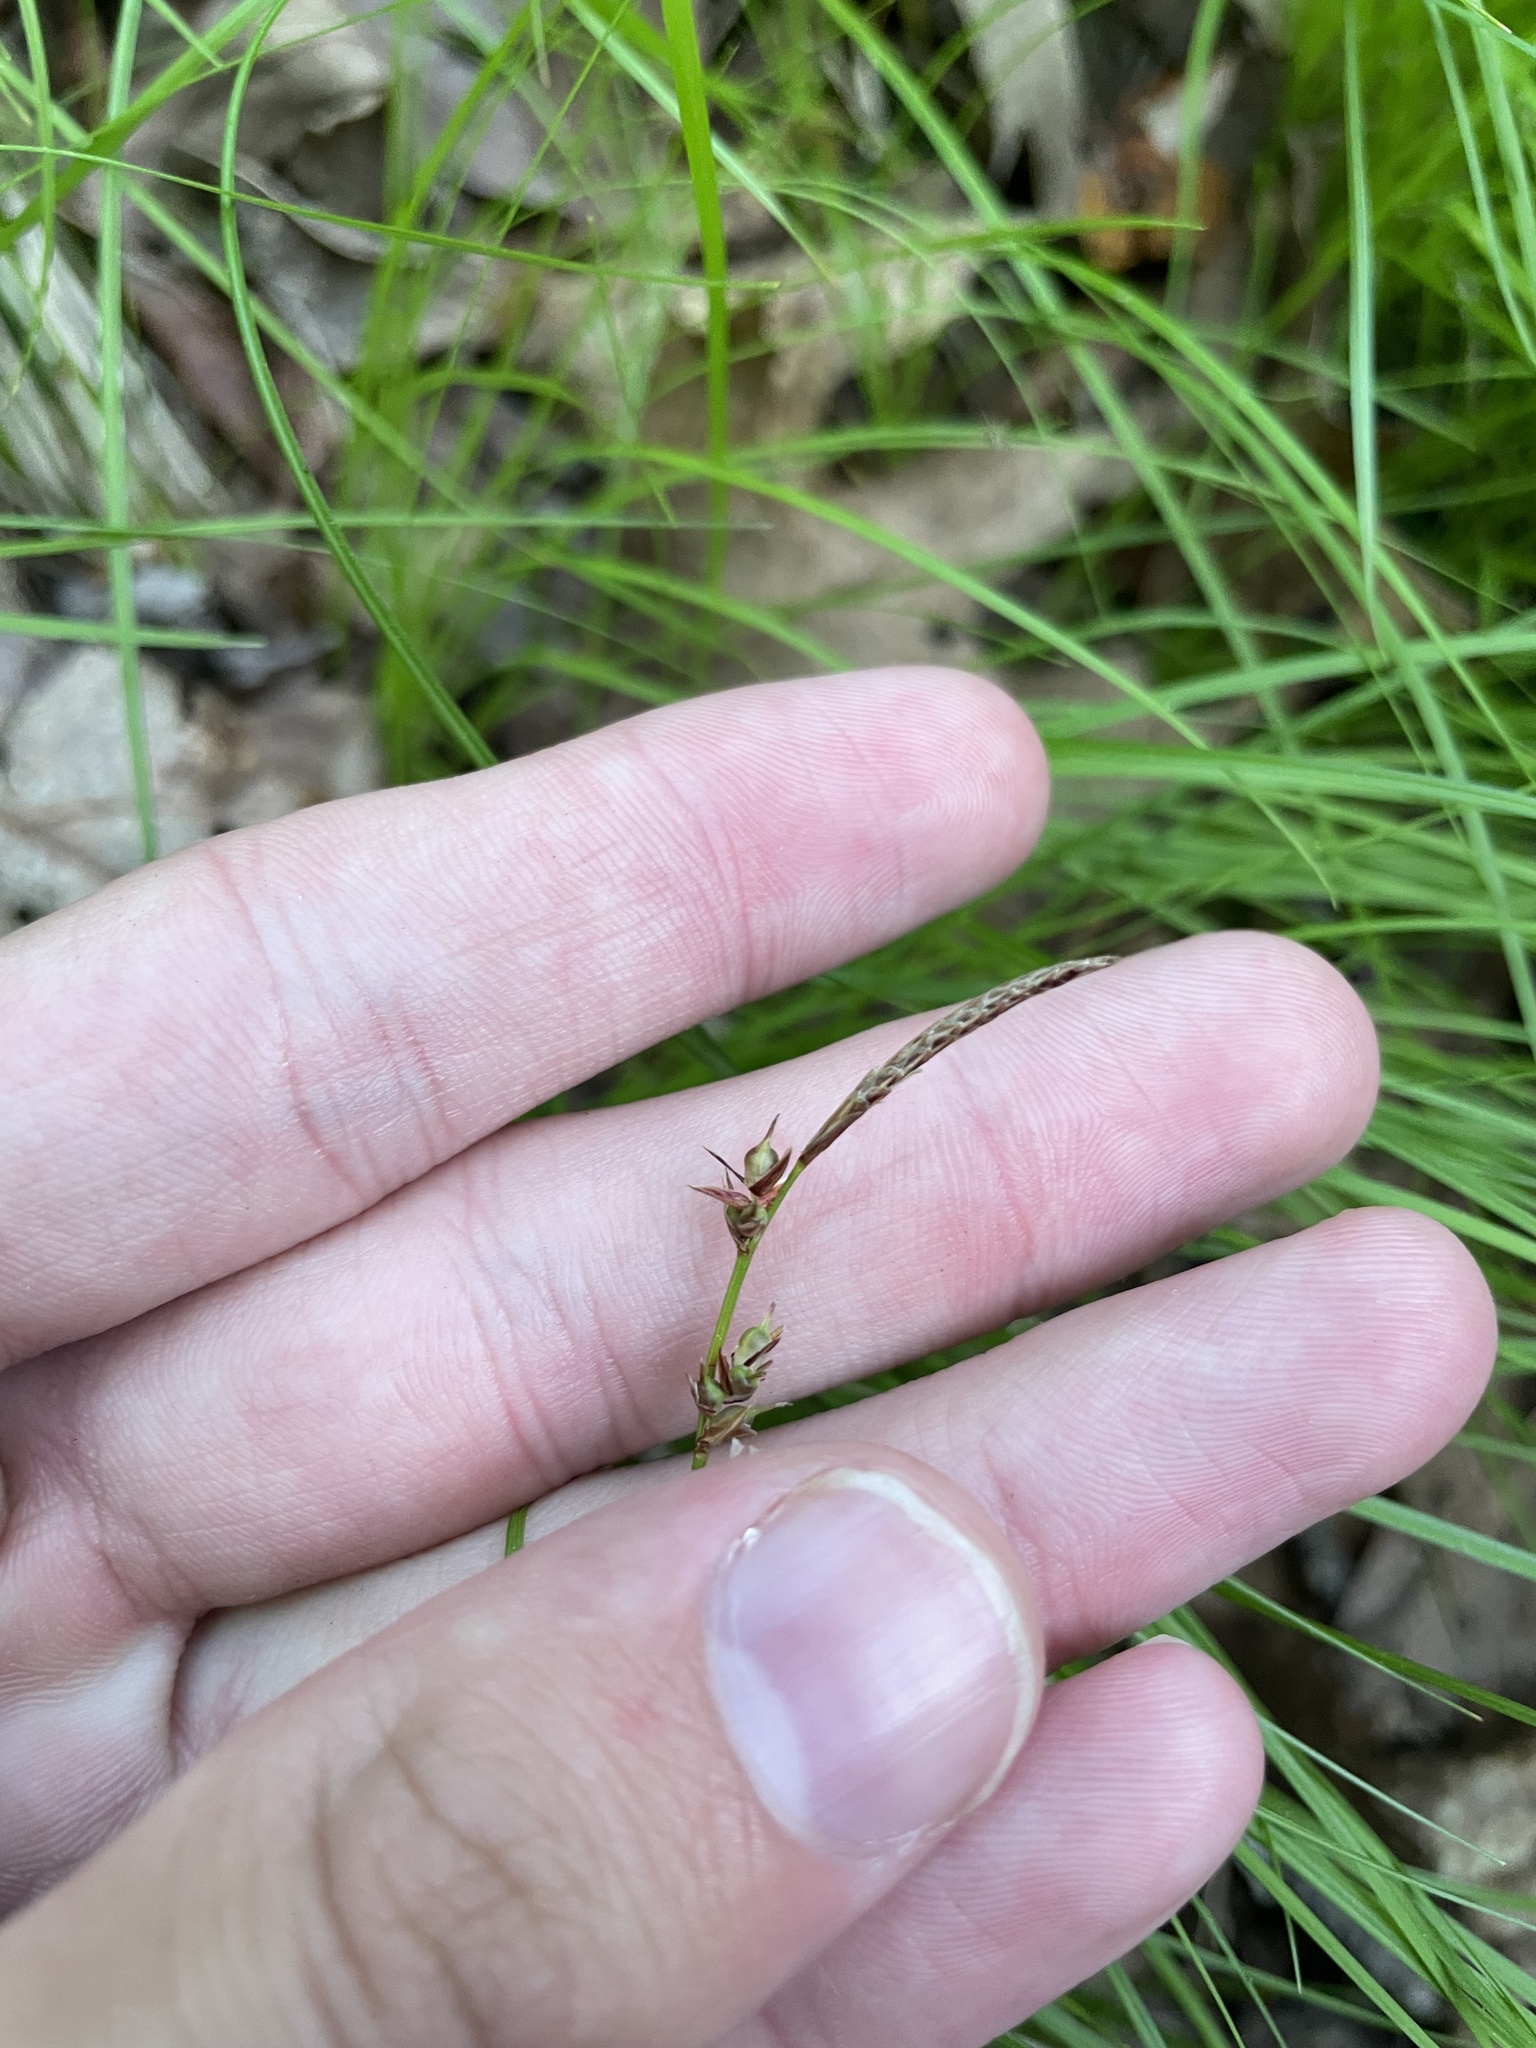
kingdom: Plantae
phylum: Tracheophyta
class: Liliopsida
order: Poales
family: Cyperaceae
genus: Carex
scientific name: Carex communis
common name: Colonial oak sedge
